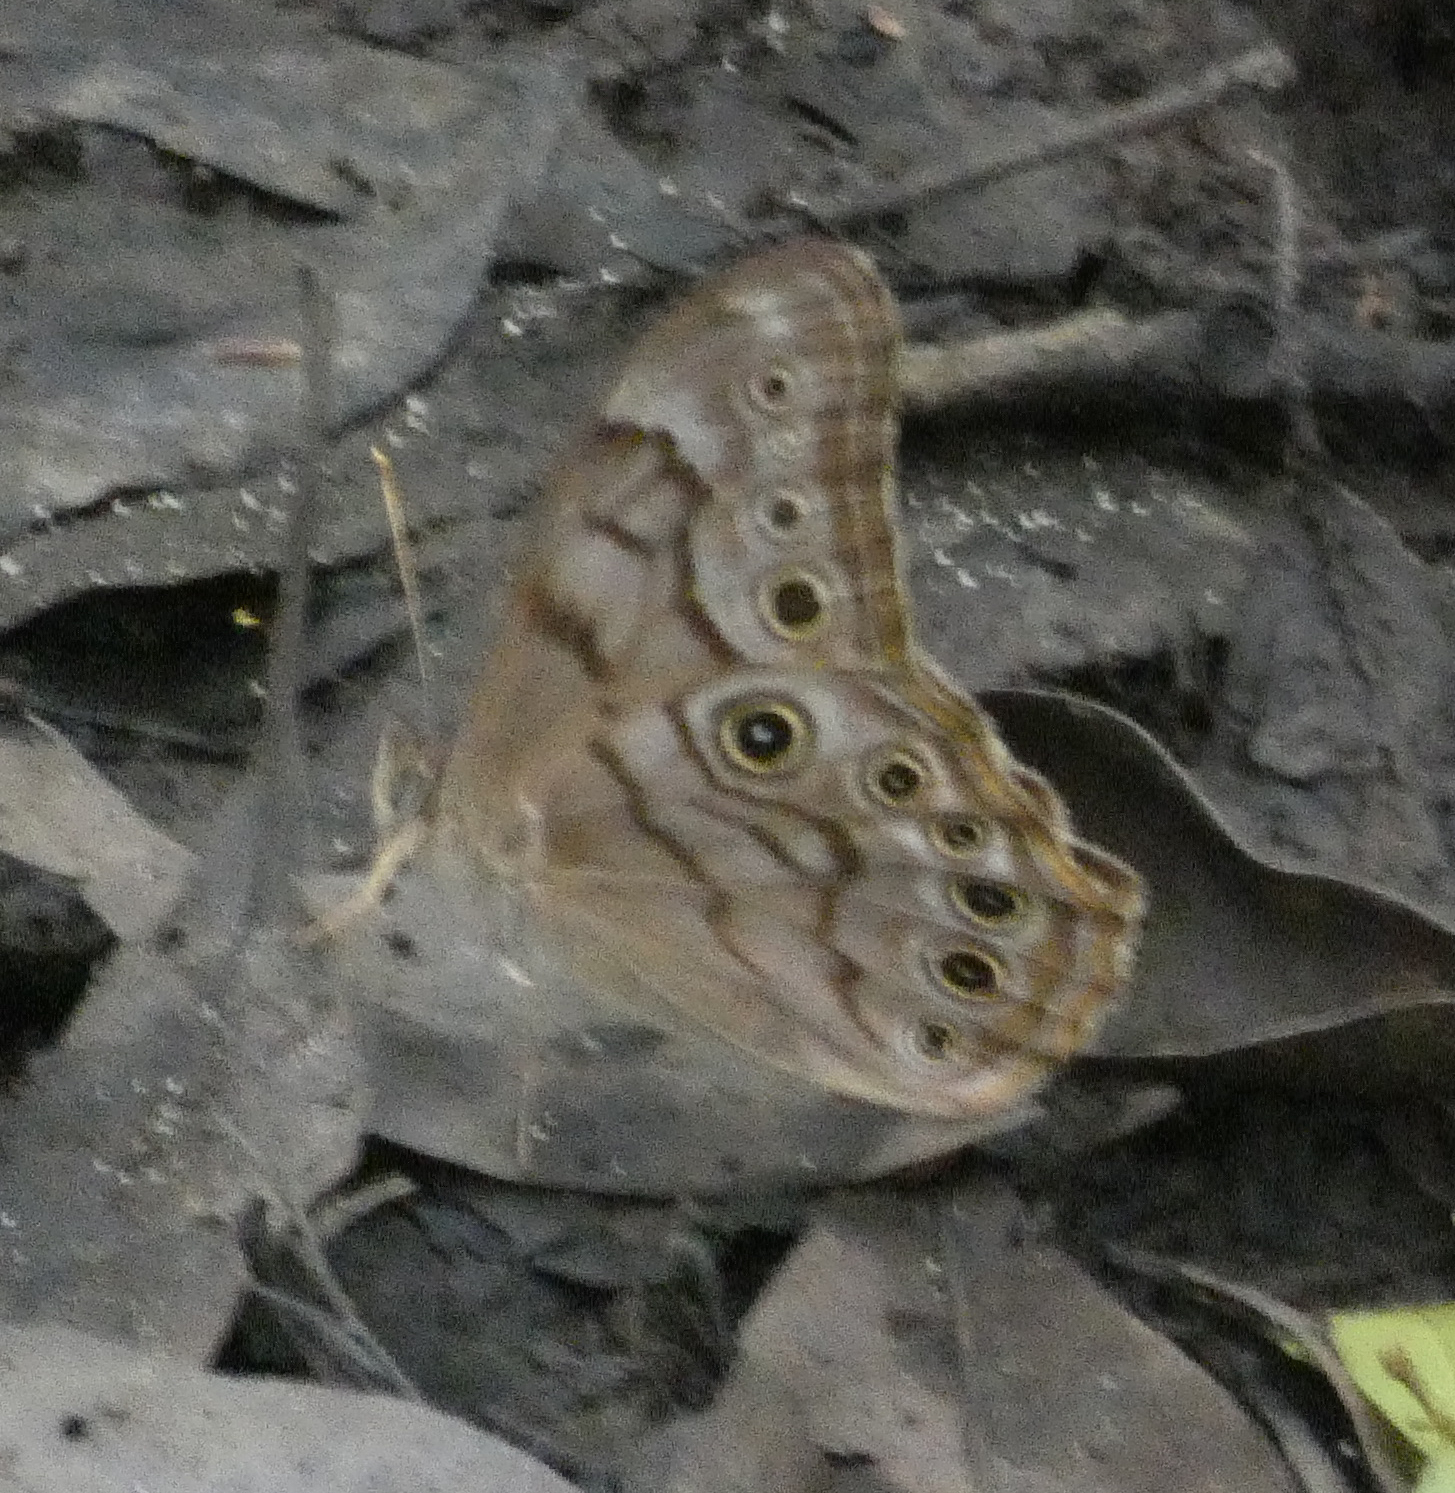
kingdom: Animalia
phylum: Arthropoda
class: Insecta
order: Lepidoptera
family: Nymphalidae
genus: Lethe
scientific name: Lethe creola
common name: Creole pearly-eye
